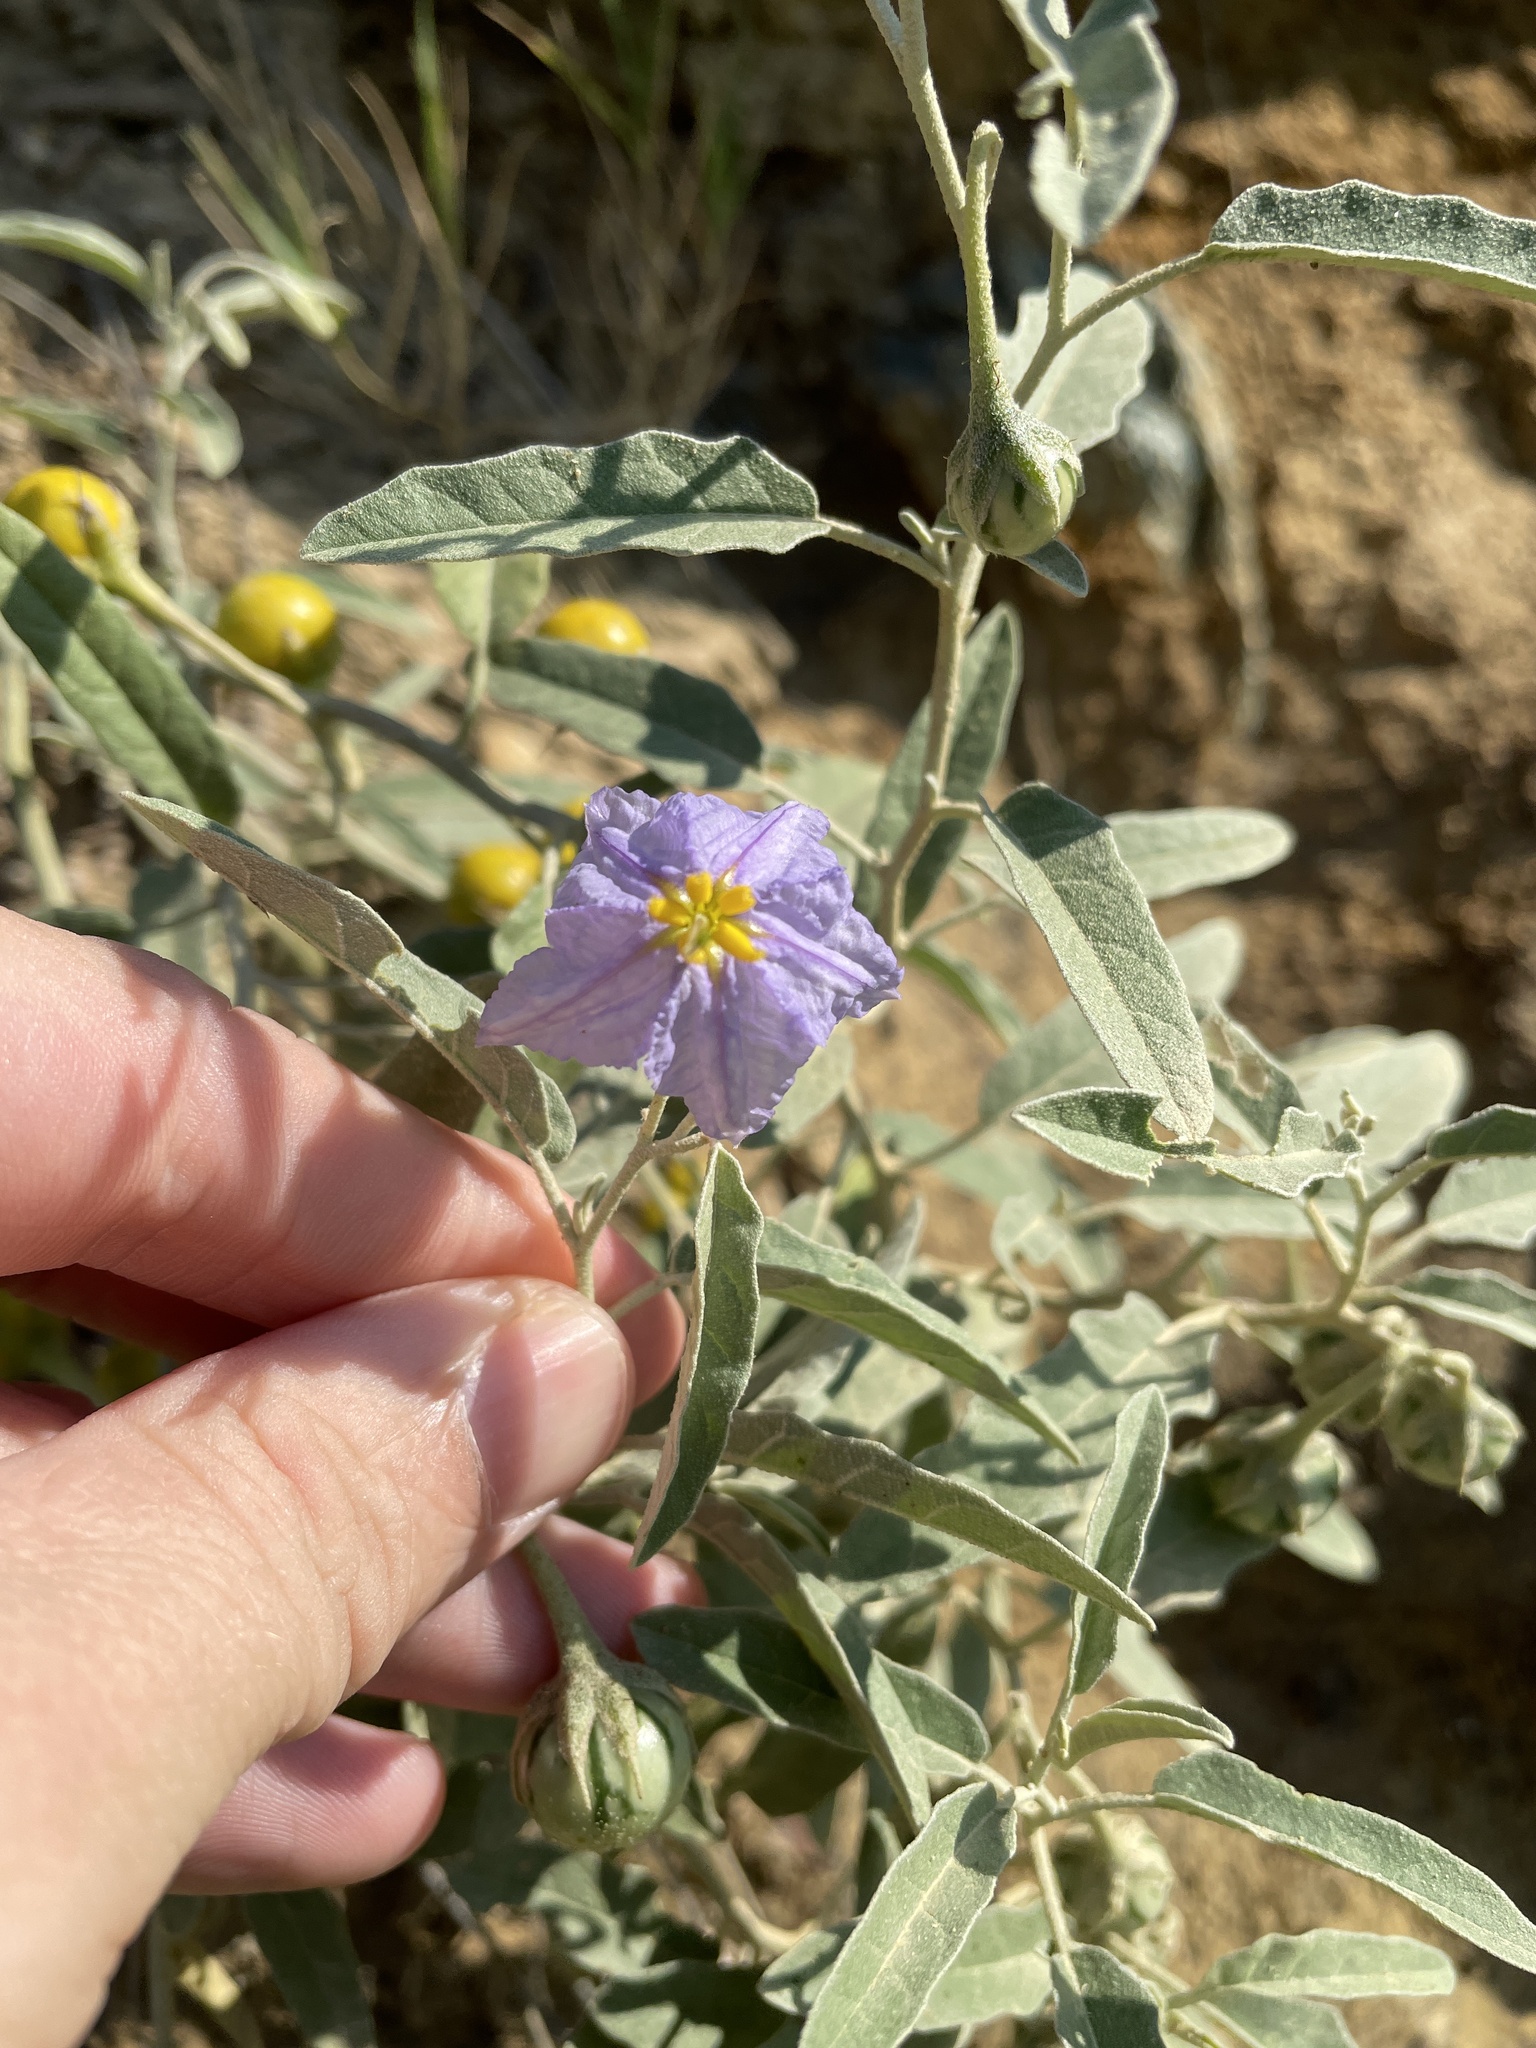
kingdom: Plantae
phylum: Tracheophyta
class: Magnoliopsida
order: Solanales
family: Solanaceae
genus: Solanum
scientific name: Solanum elaeagnifolium
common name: Silverleaf nightshade
